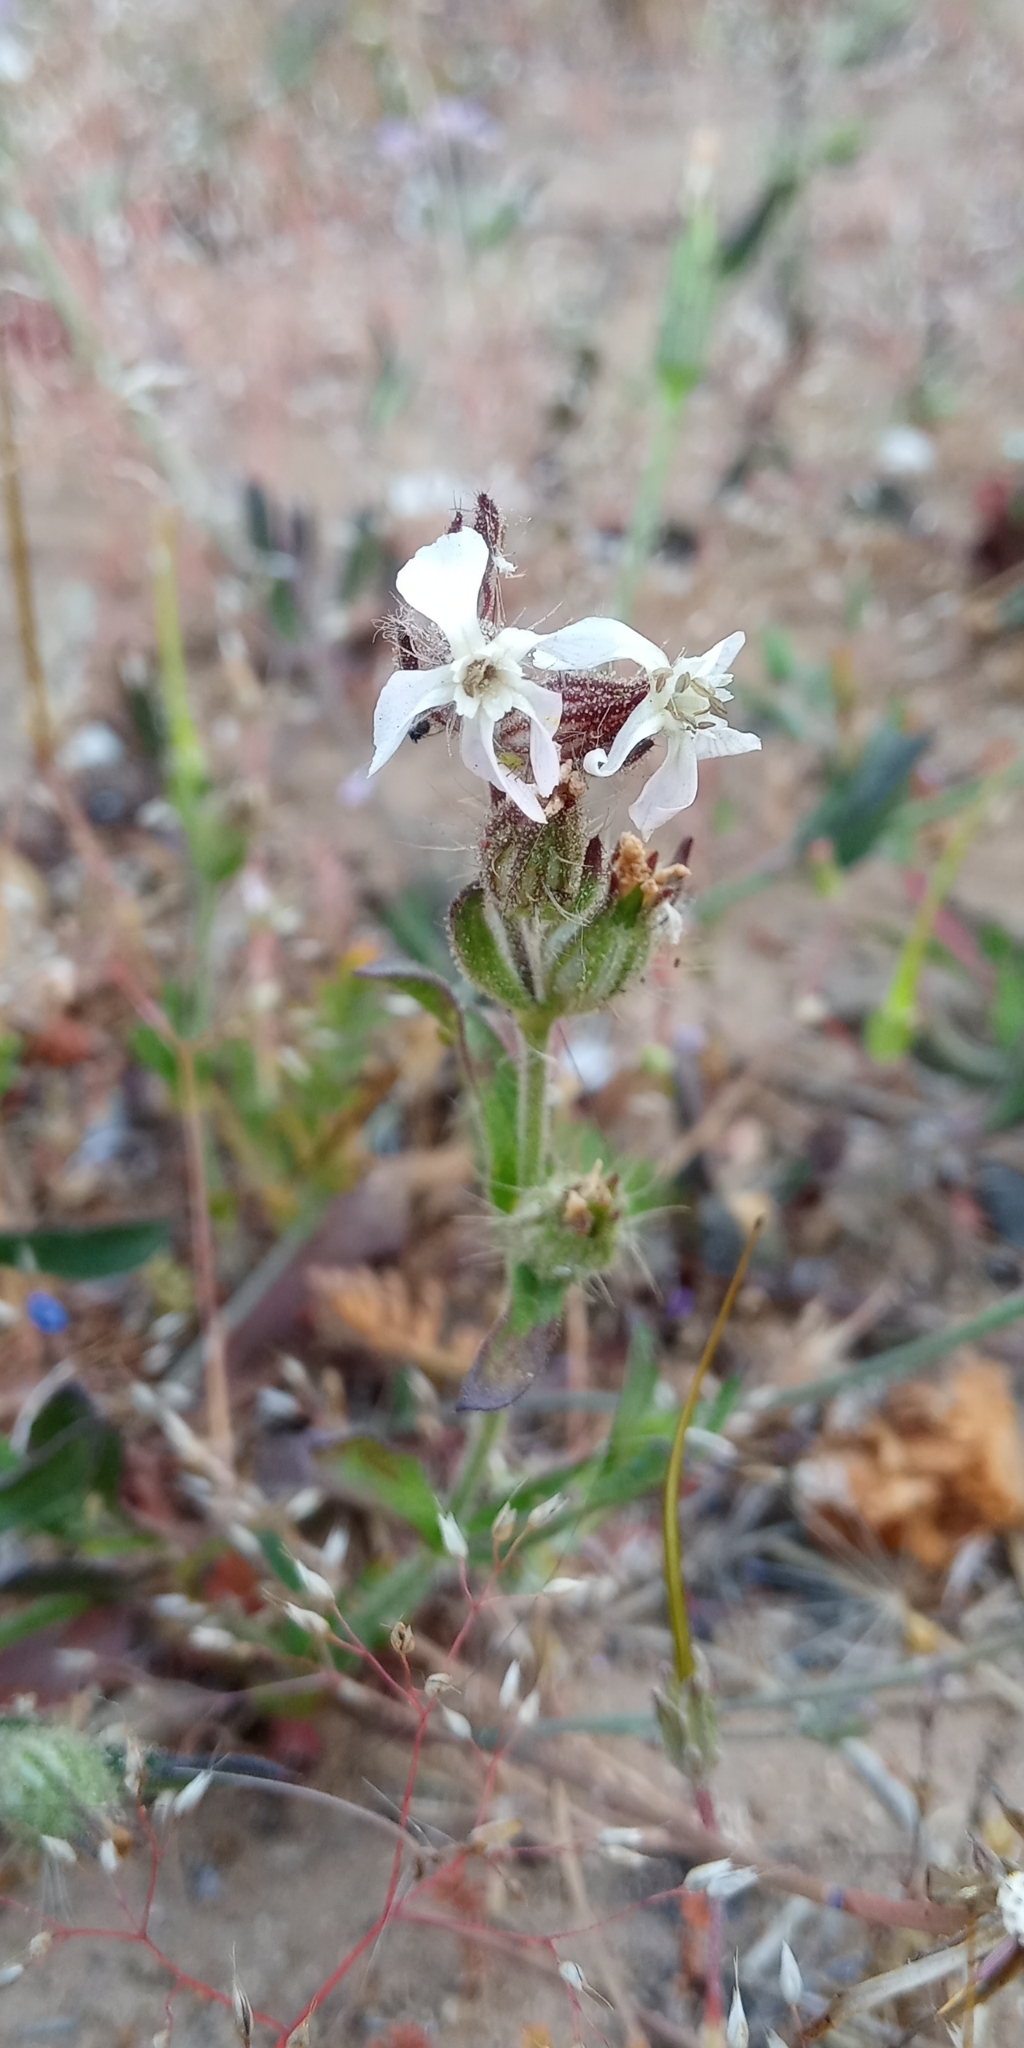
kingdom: Plantae
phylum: Tracheophyta
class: Magnoliopsida
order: Caryophyllales
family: Caryophyllaceae
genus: Silene
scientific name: Silene gallica
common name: Small-flowered catchfly
